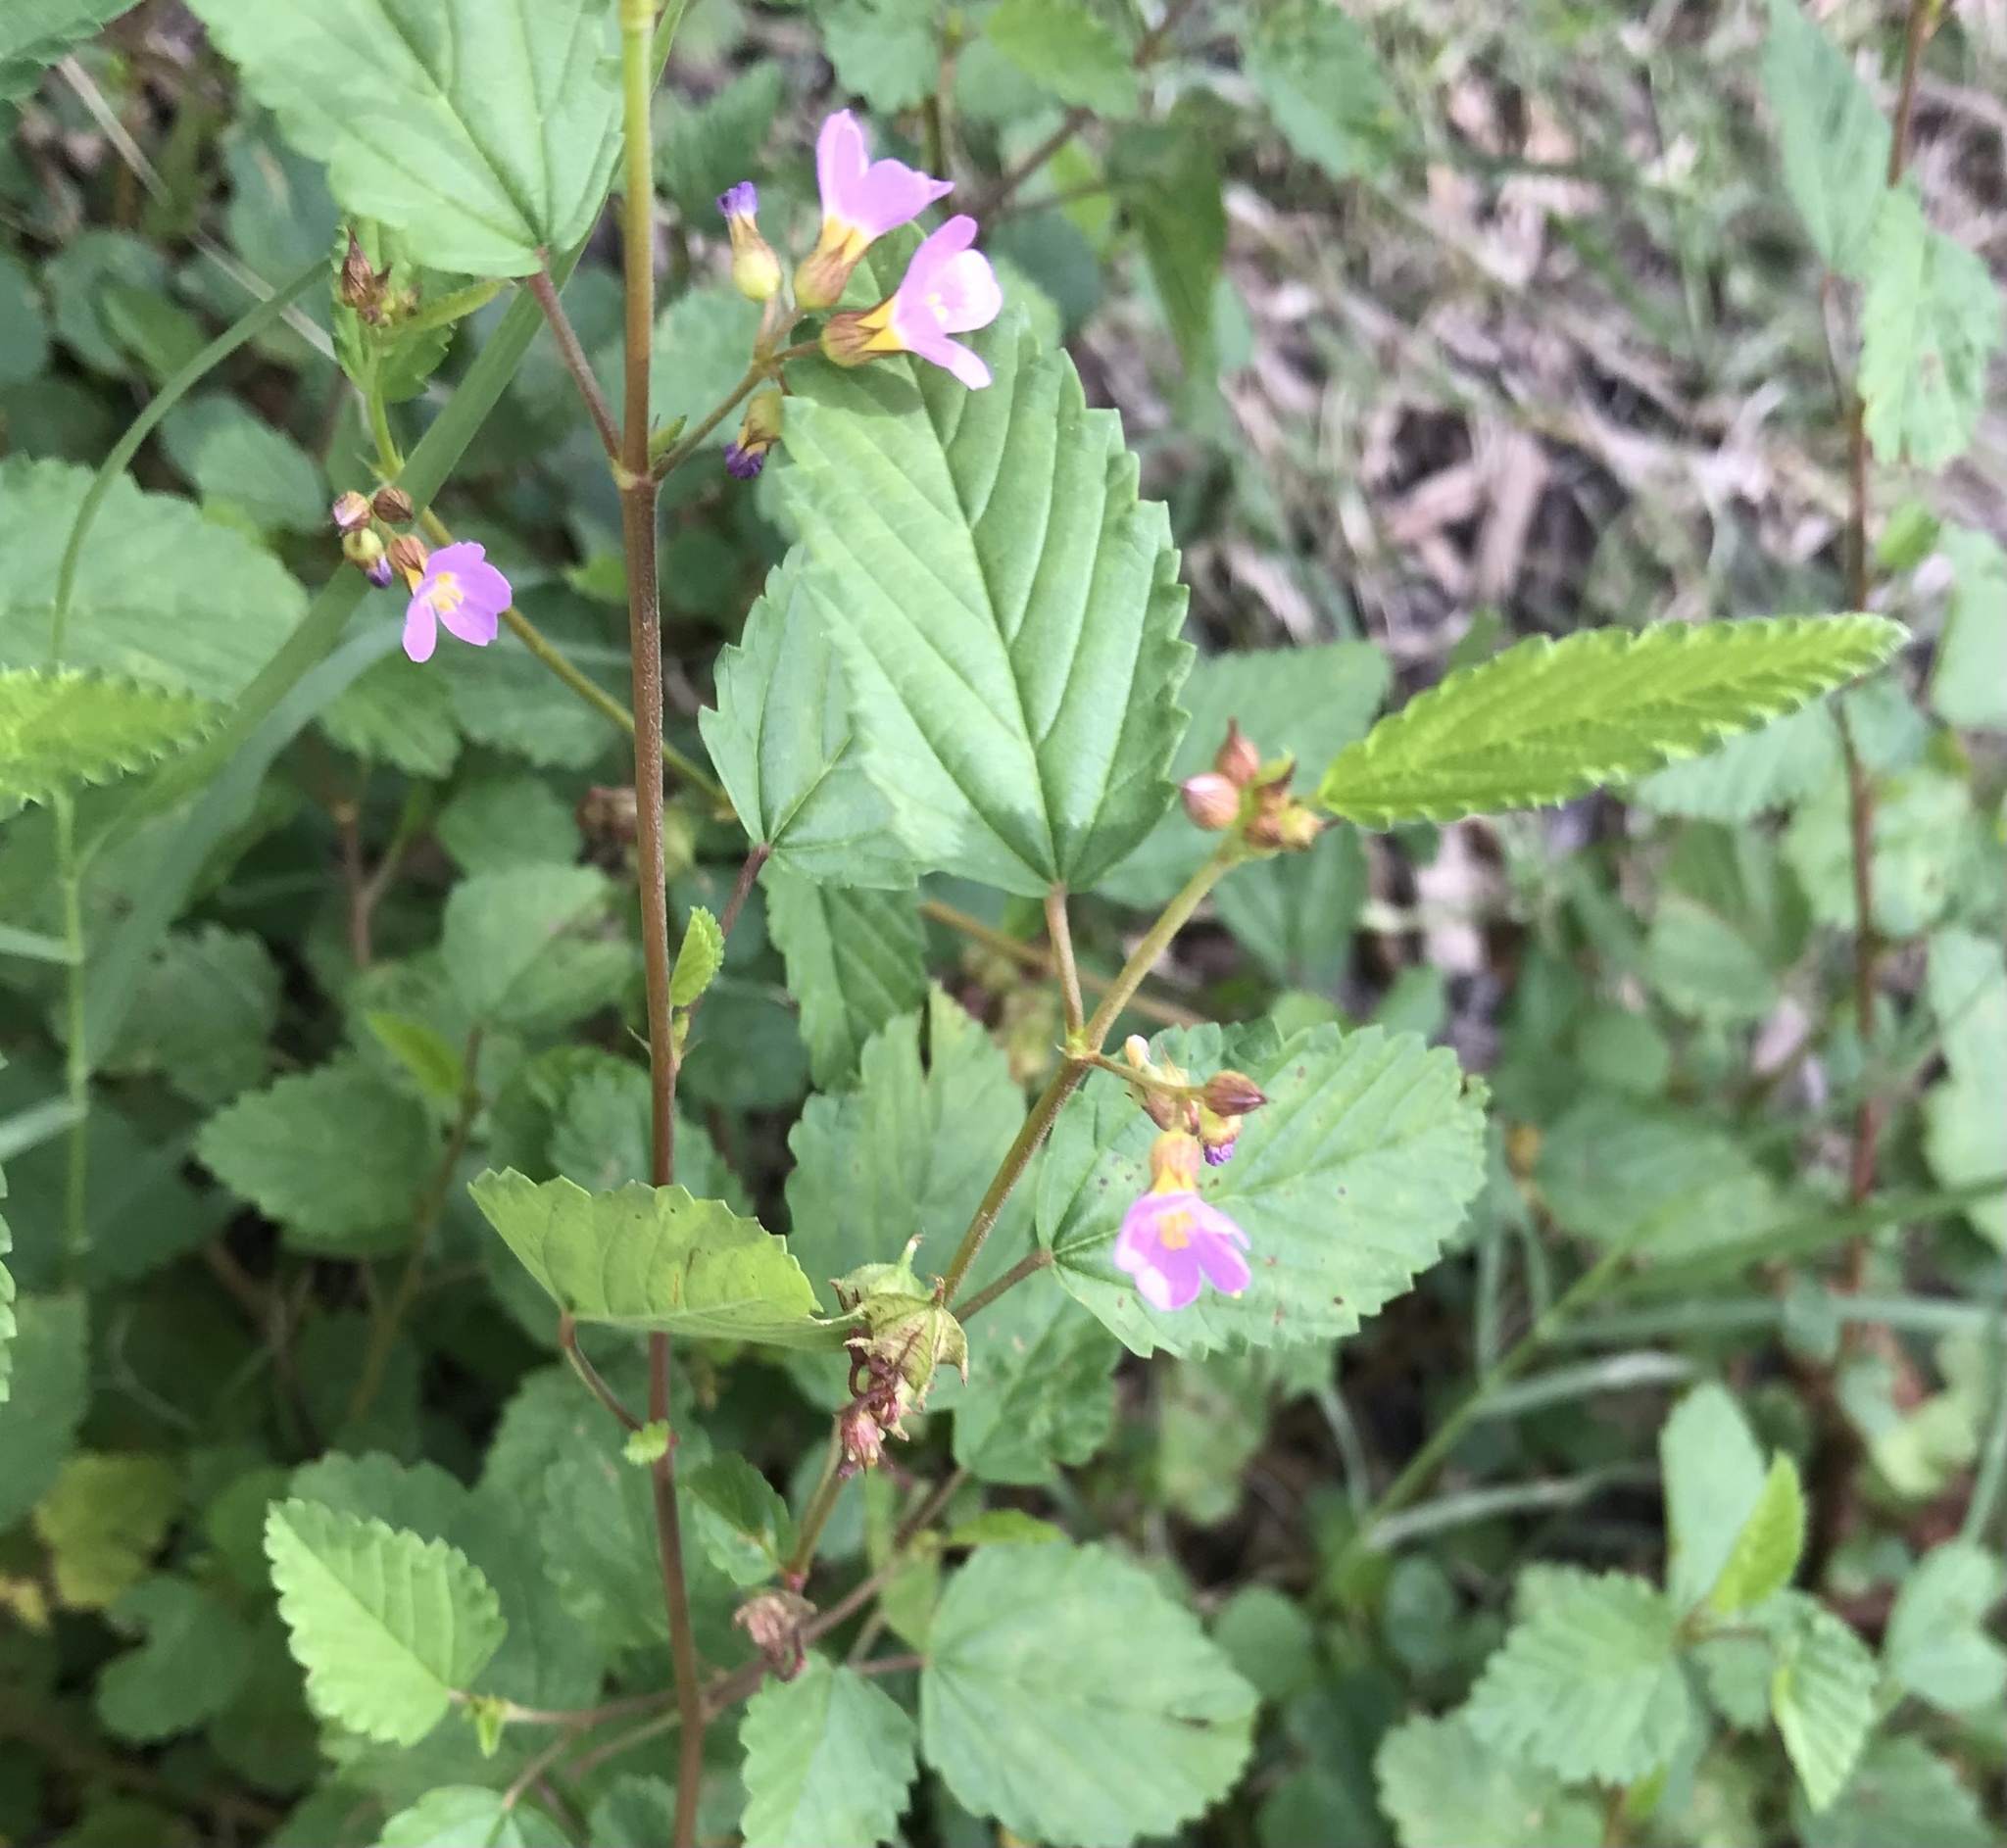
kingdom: Plantae
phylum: Tracheophyta
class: Magnoliopsida
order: Malvales
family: Malvaceae
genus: Melochia
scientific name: Melochia pyramidata
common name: Pyramidflower
